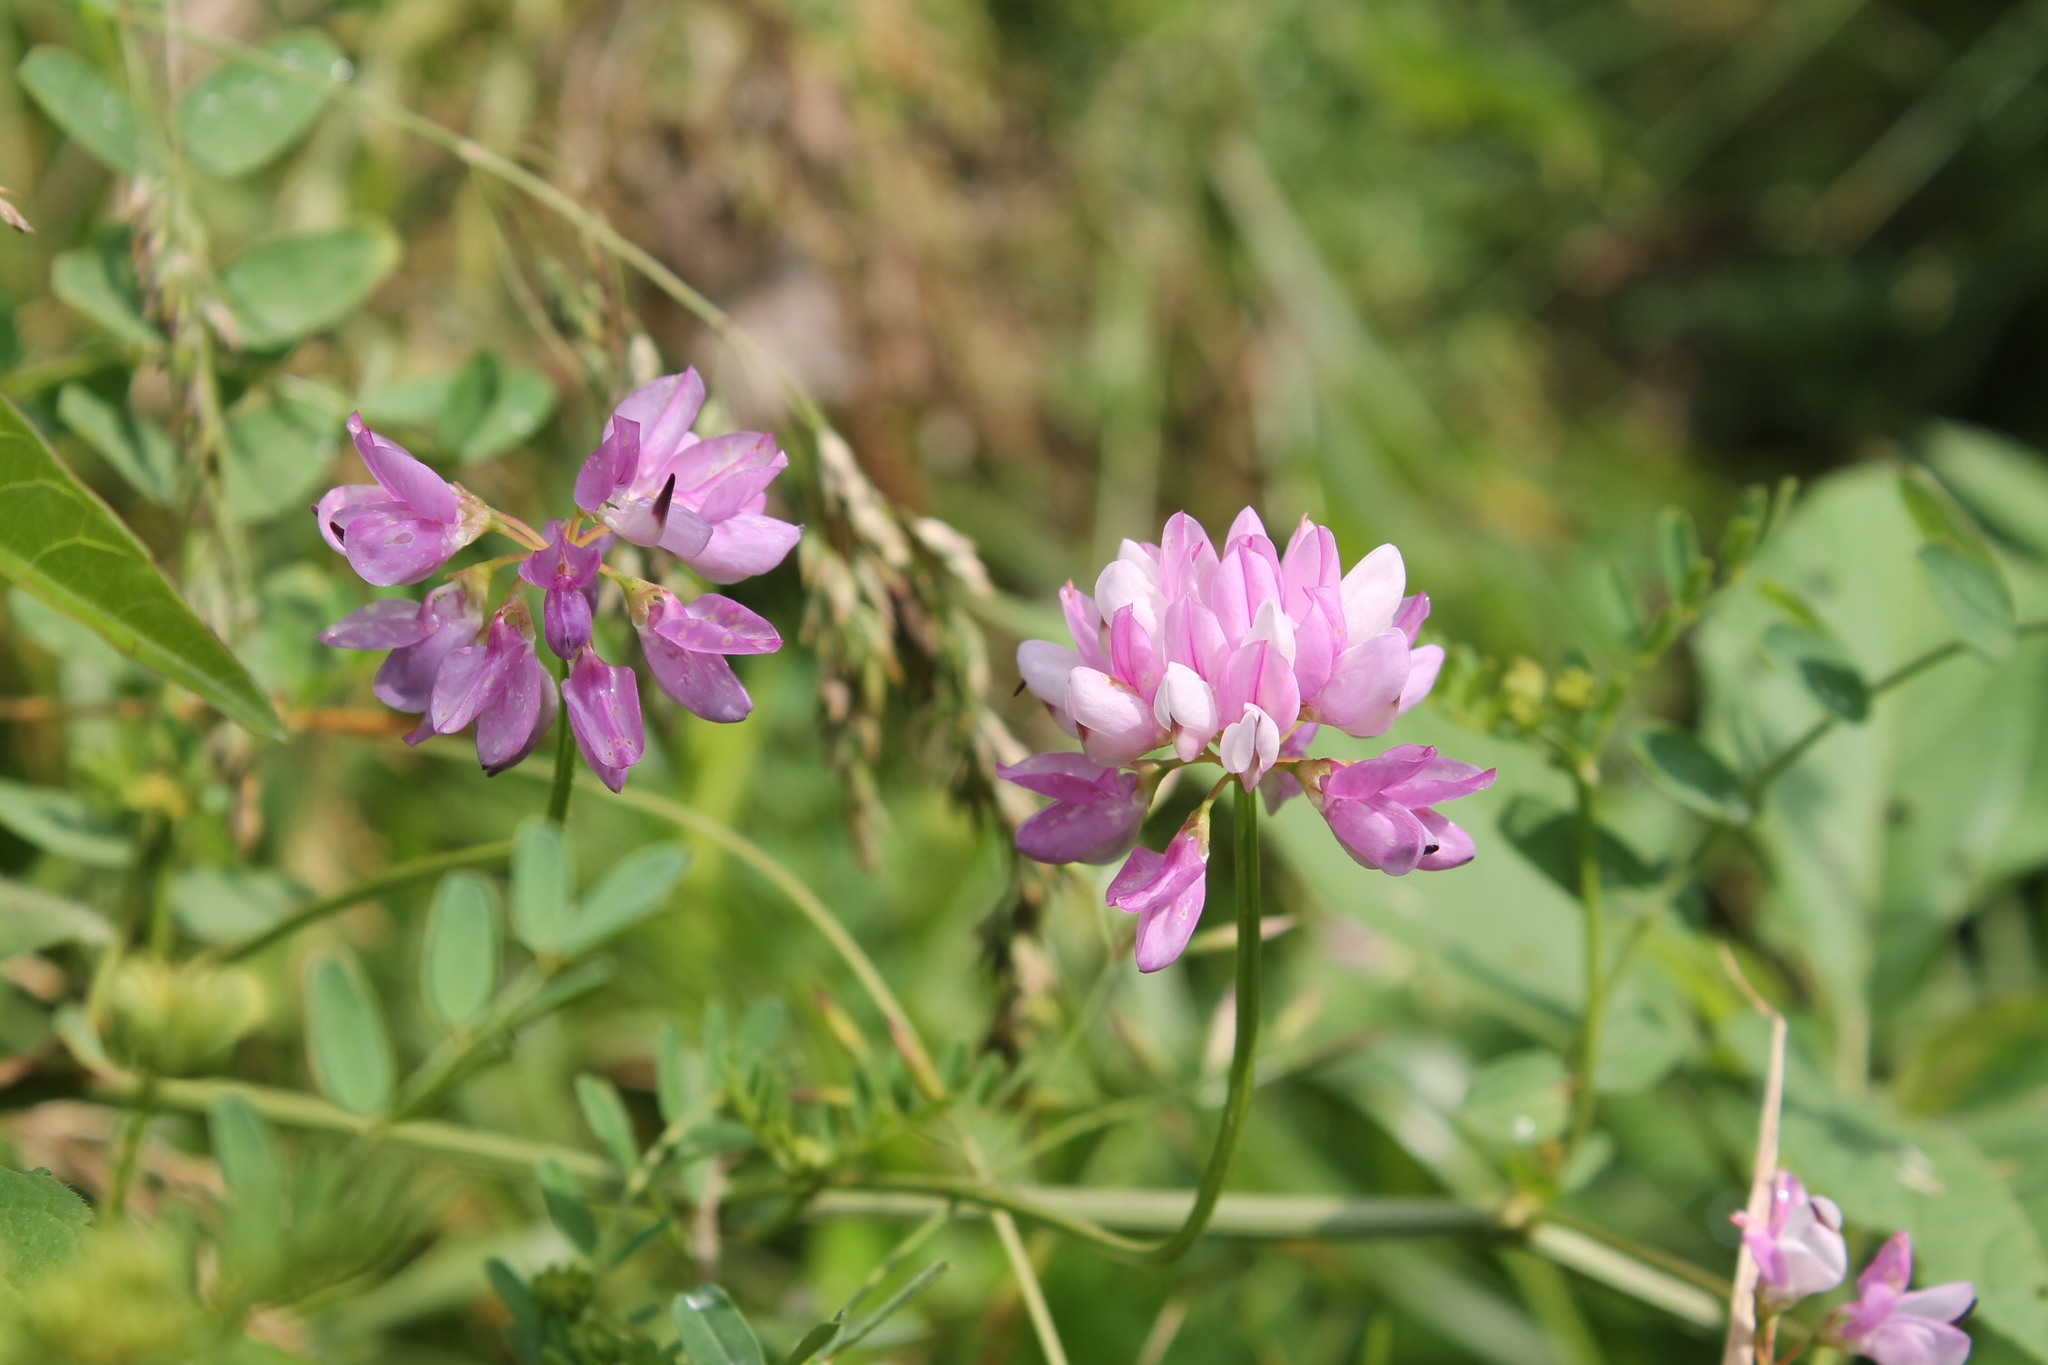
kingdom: Plantae
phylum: Tracheophyta
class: Magnoliopsida
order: Fabales
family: Fabaceae
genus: Coronilla
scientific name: Coronilla varia
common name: Crownvetch
